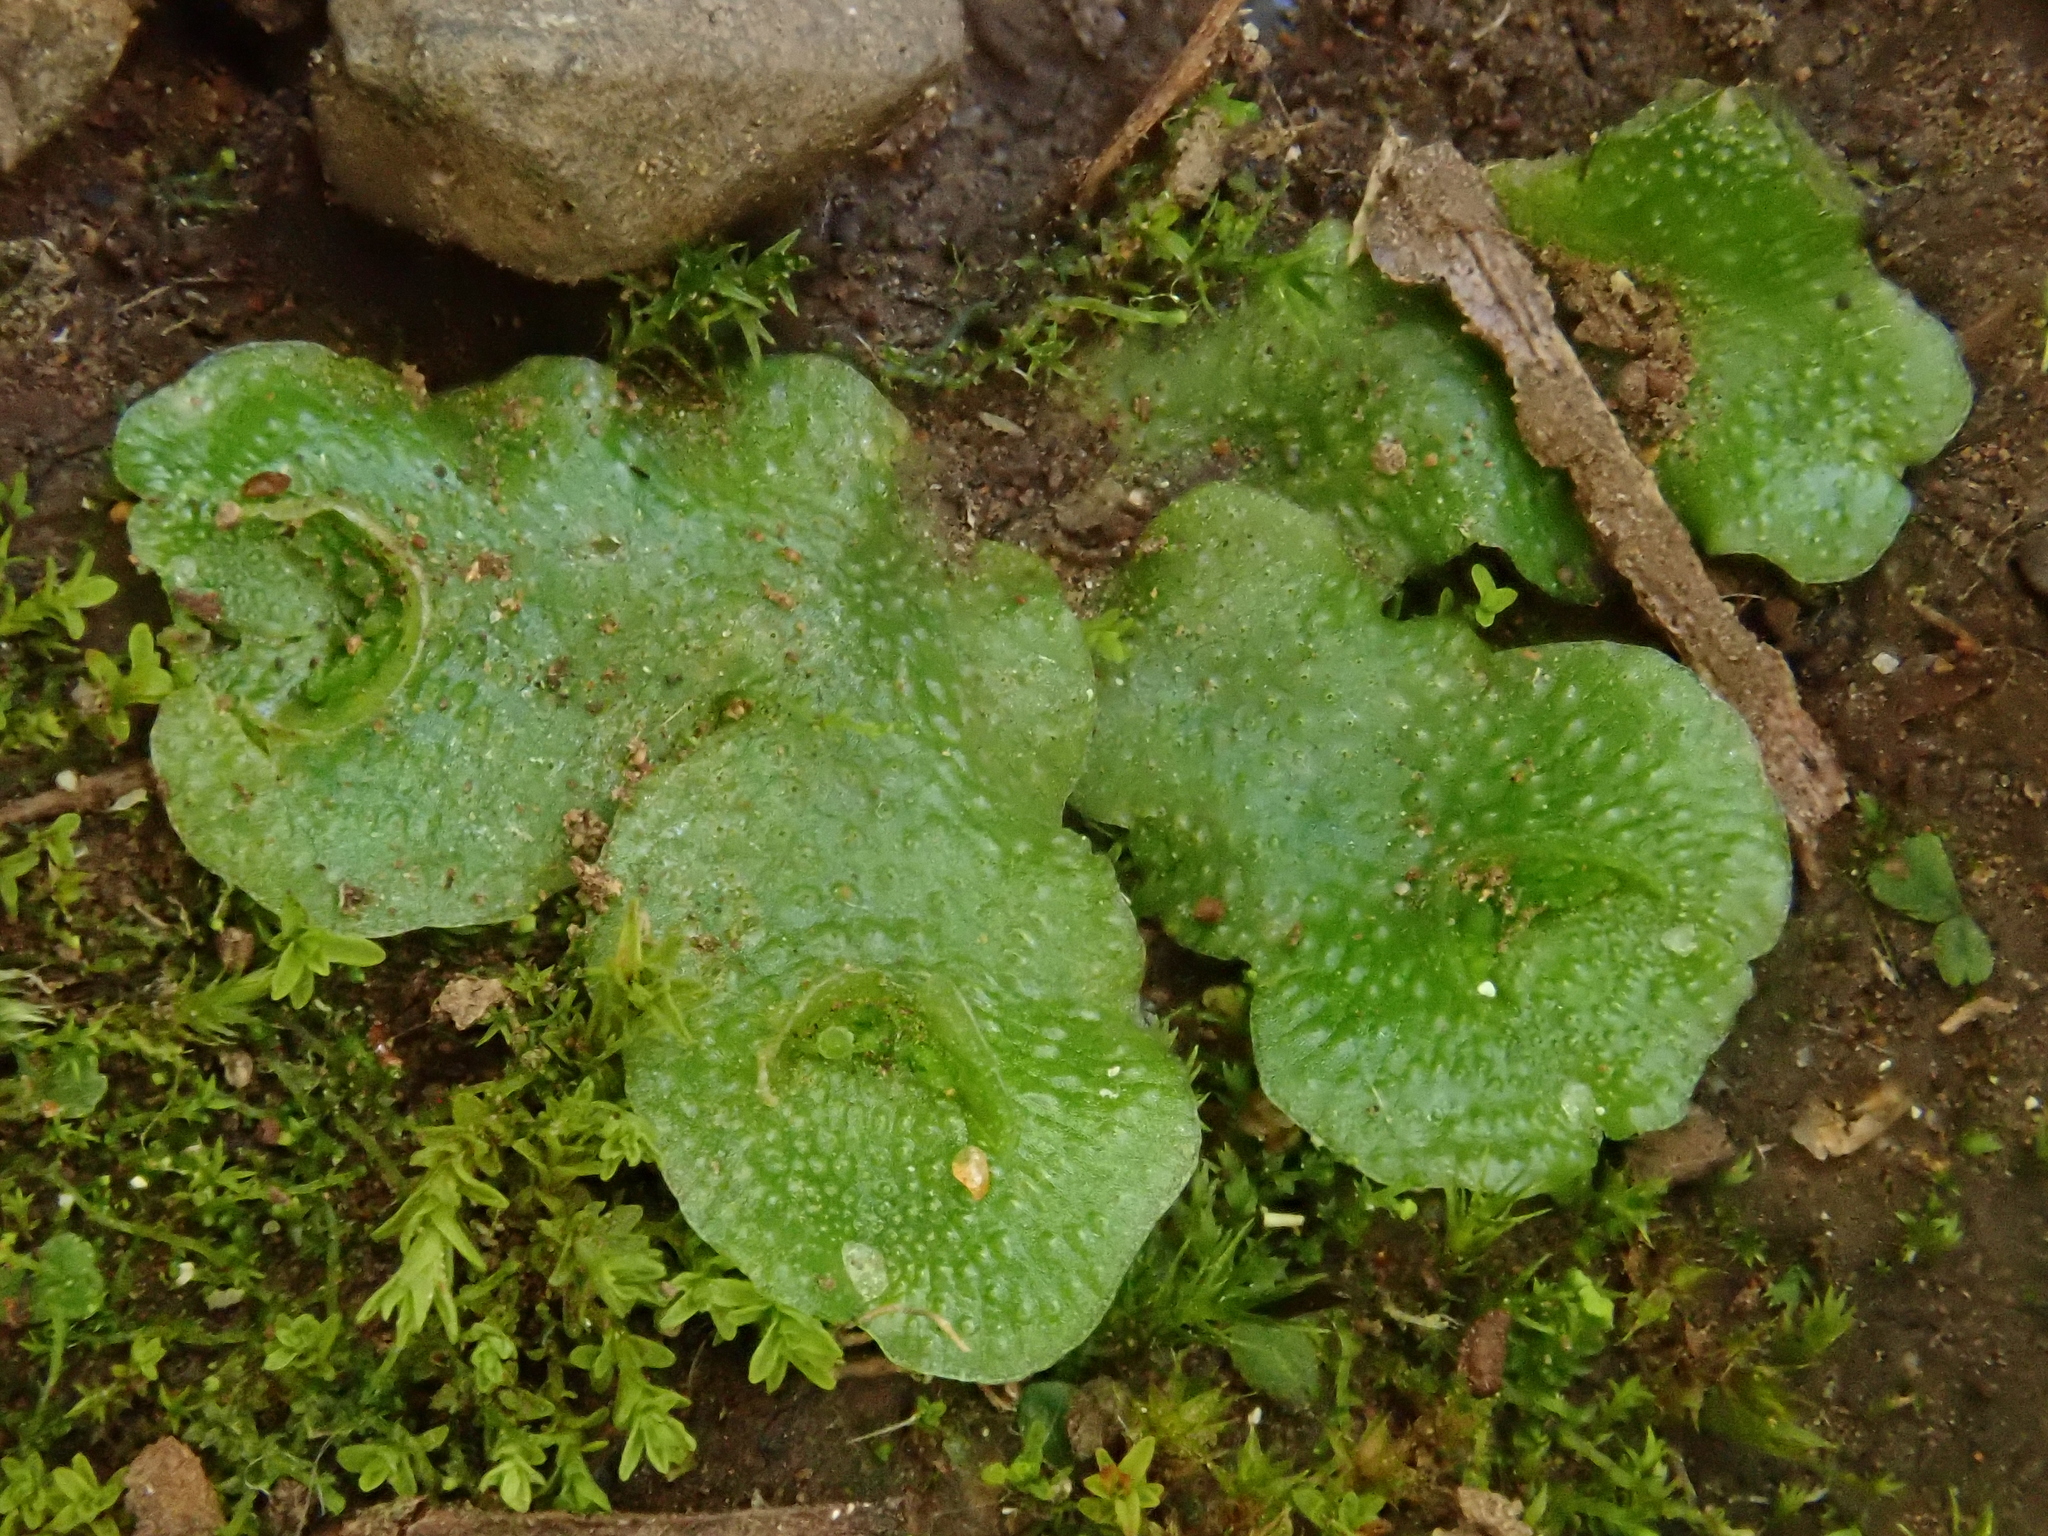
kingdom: Plantae
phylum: Marchantiophyta
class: Marchantiopsida
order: Lunulariales
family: Lunulariaceae
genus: Lunularia
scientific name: Lunularia cruciata
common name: Crescent-cup liverwort
